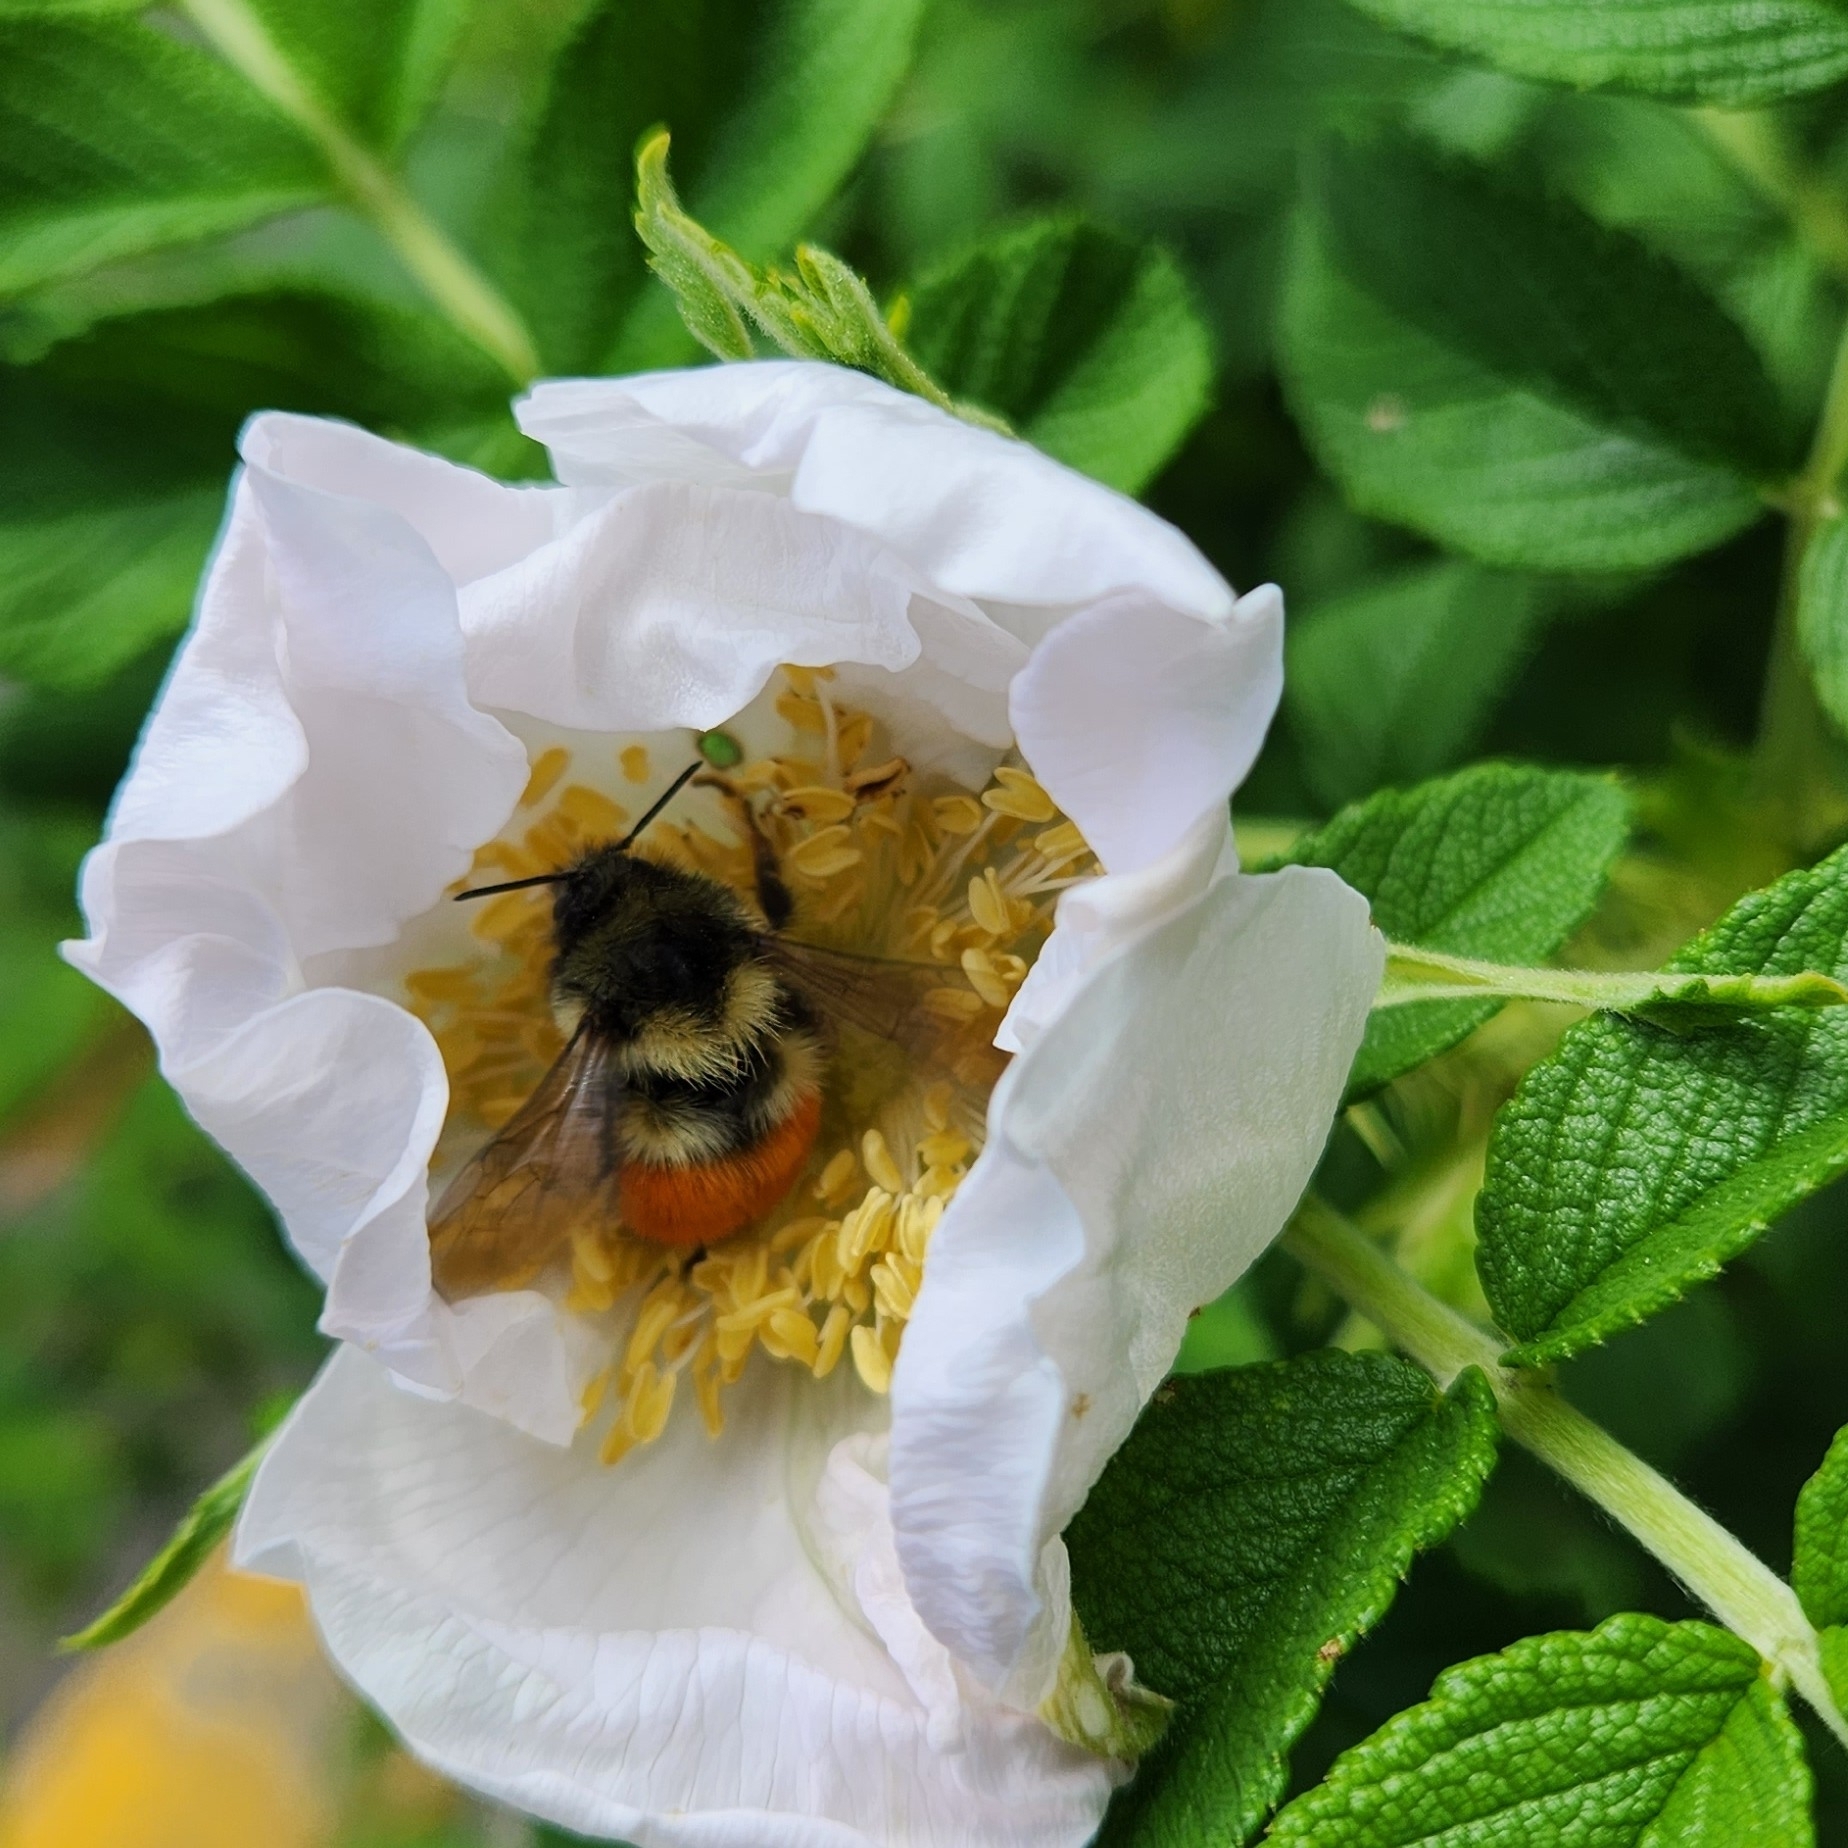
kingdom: Animalia
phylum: Arthropoda
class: Insecta
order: Hymenoptera
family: Apidae
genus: Bombus
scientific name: Bombus melanopygus
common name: Black tail bumble bee
